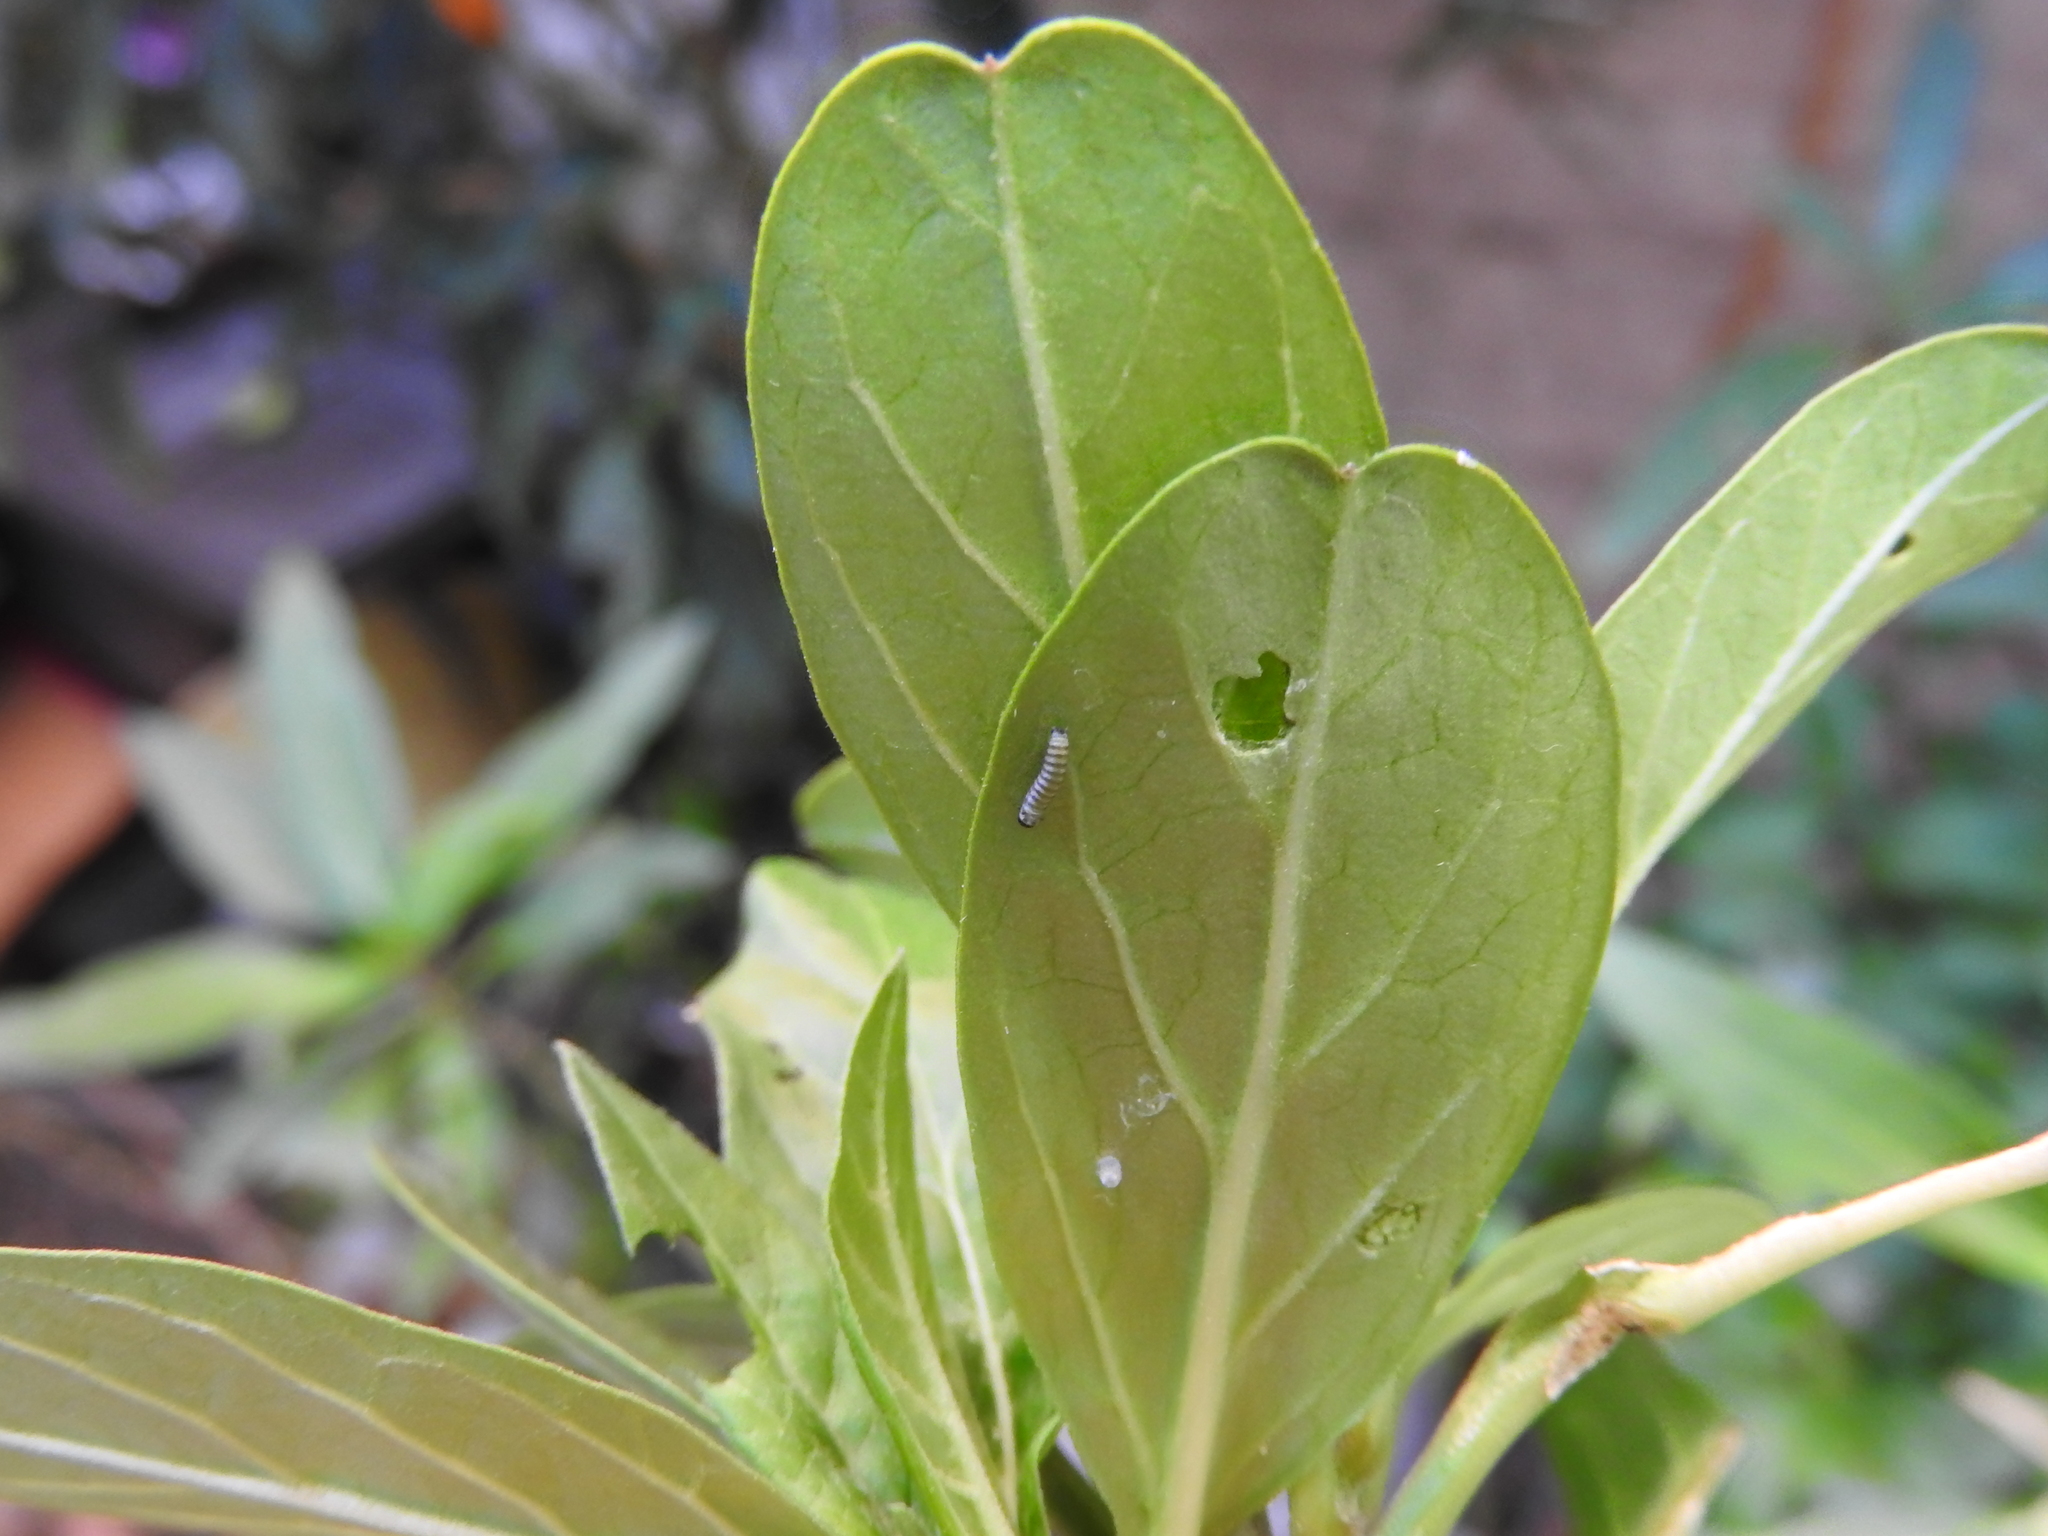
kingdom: Animalia
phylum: Arthropoda
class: Insecta
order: Lepidoptera
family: Nymphalidae
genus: Danaus
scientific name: Danaus plexippus
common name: Monarch
